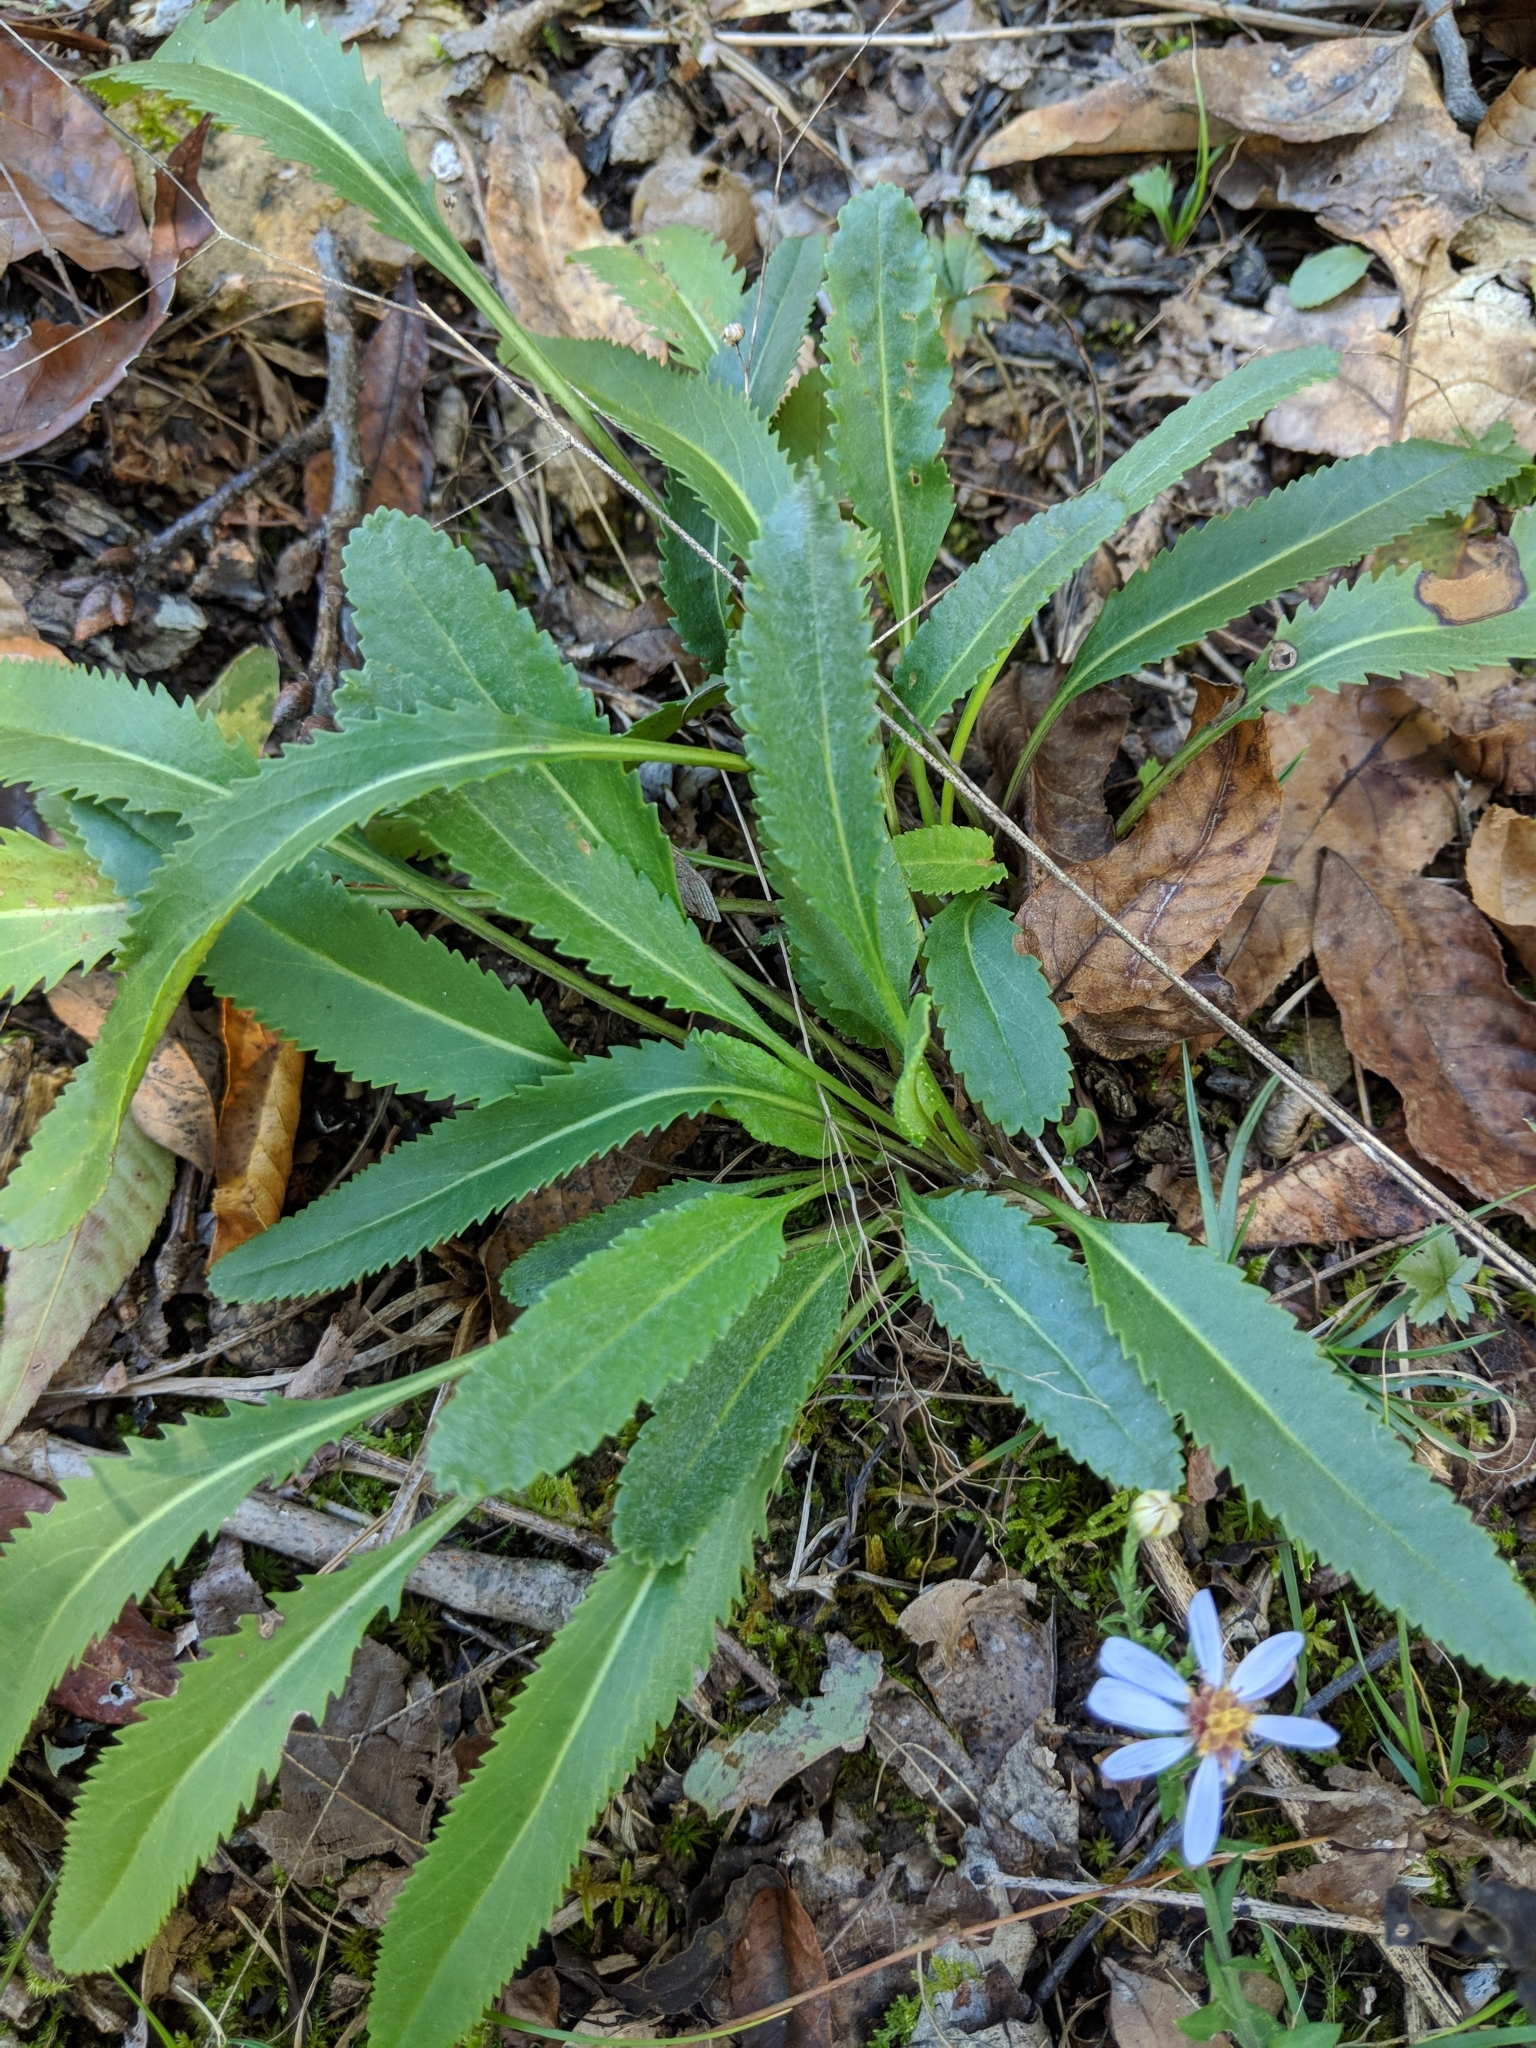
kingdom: Plantae
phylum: Tracheophyta
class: Magnoliopsida
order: Asterales
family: Asteraceae
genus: Packera
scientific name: Packera anonyma
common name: Small ragwort
